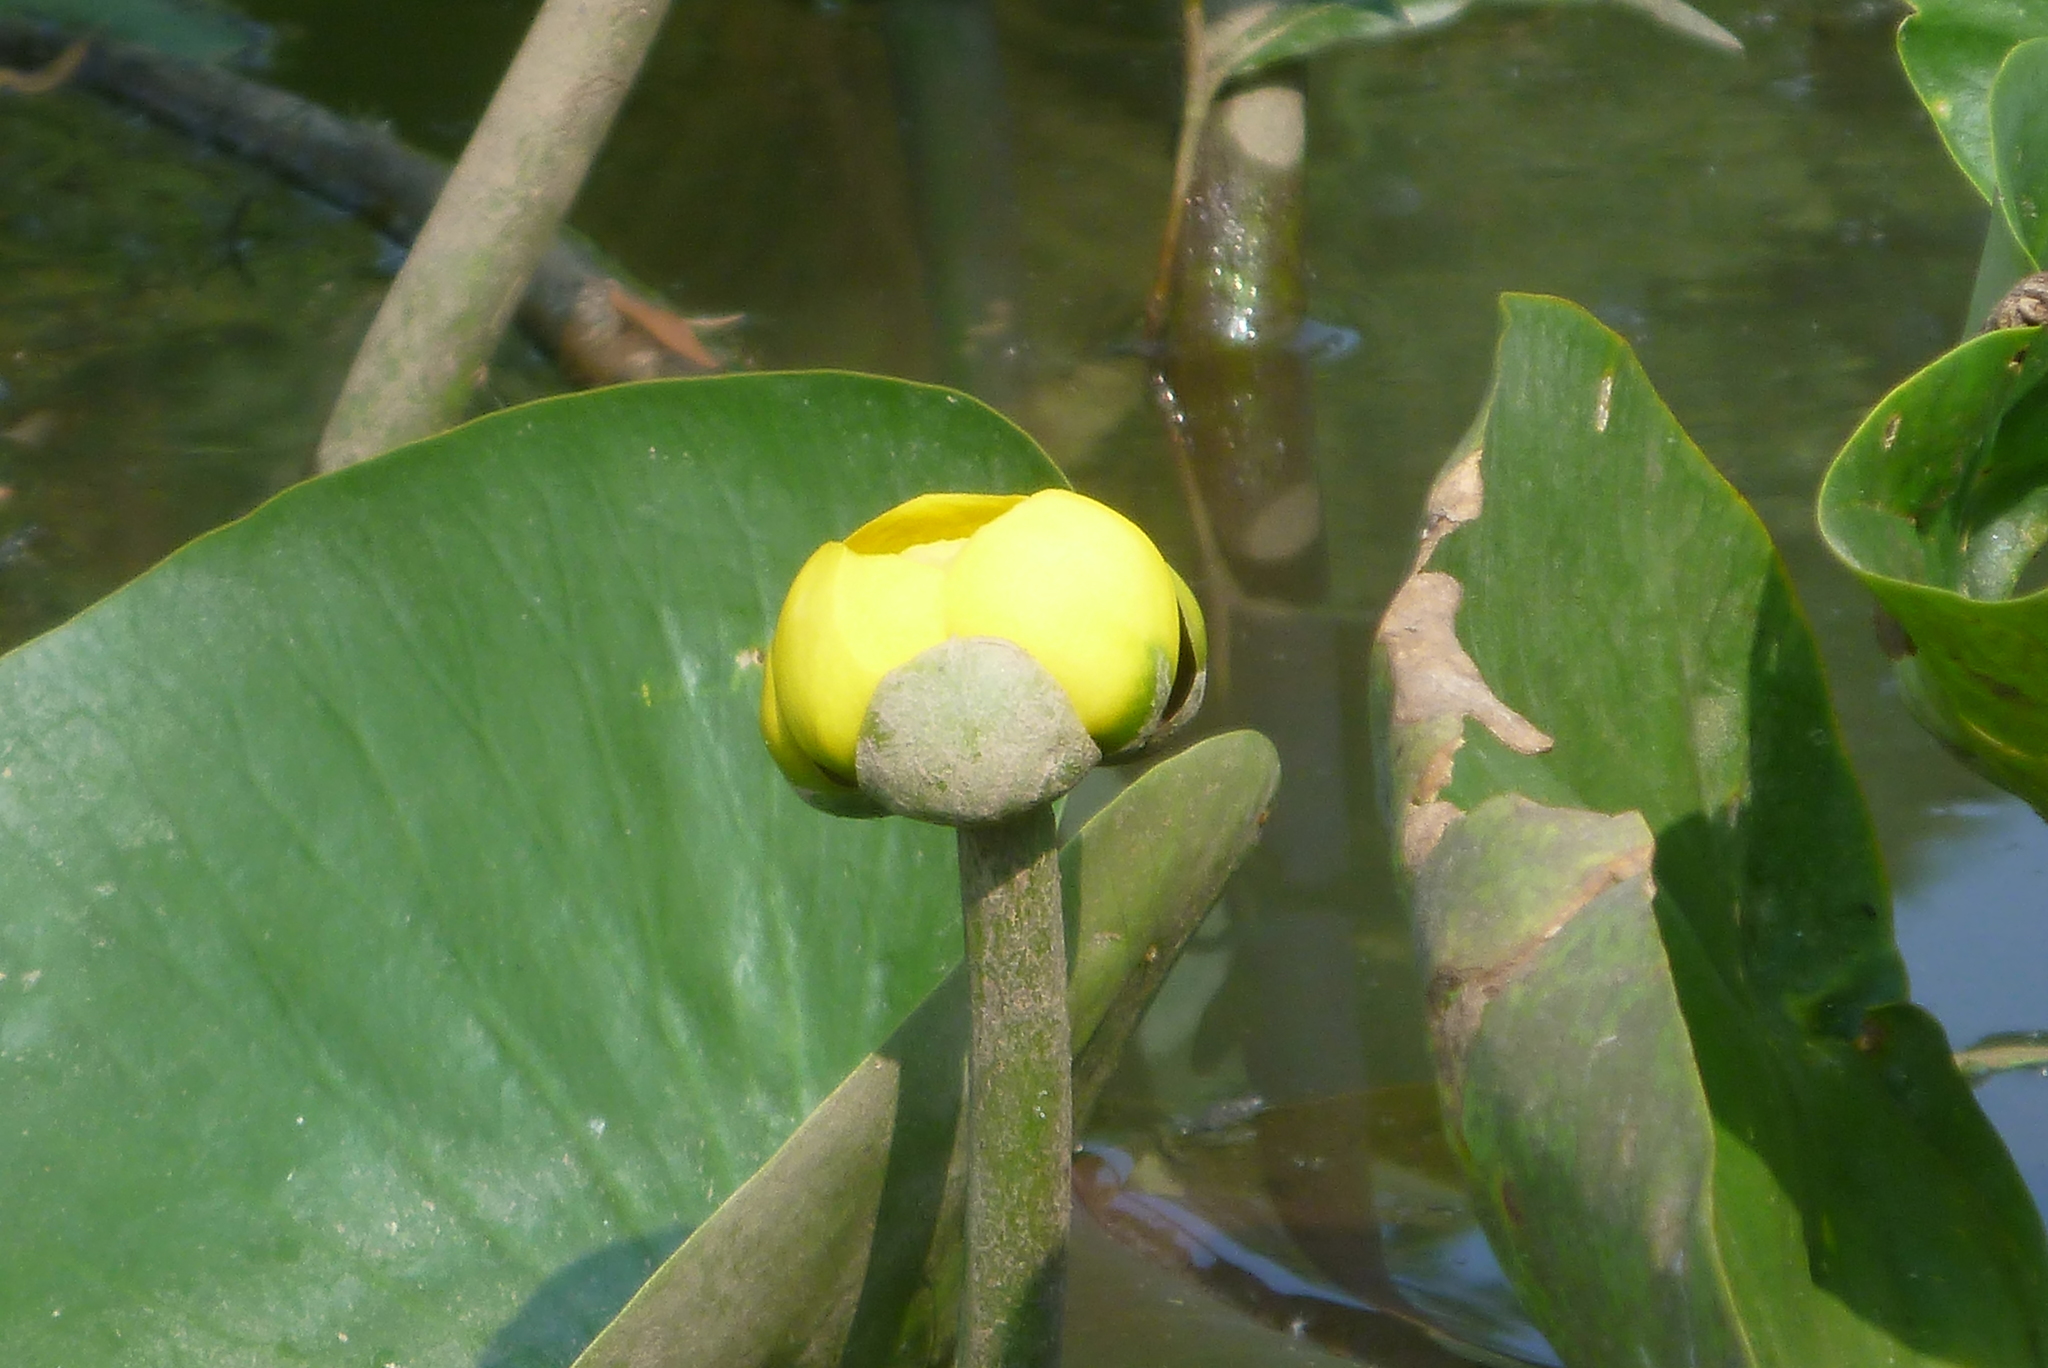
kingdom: Plantae
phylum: Tracheophyta
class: Magnoliopsida
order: Nymphaeales
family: Nymphaeaceae
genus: Nuphar
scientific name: Nuphar advena
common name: Spatter-dock
